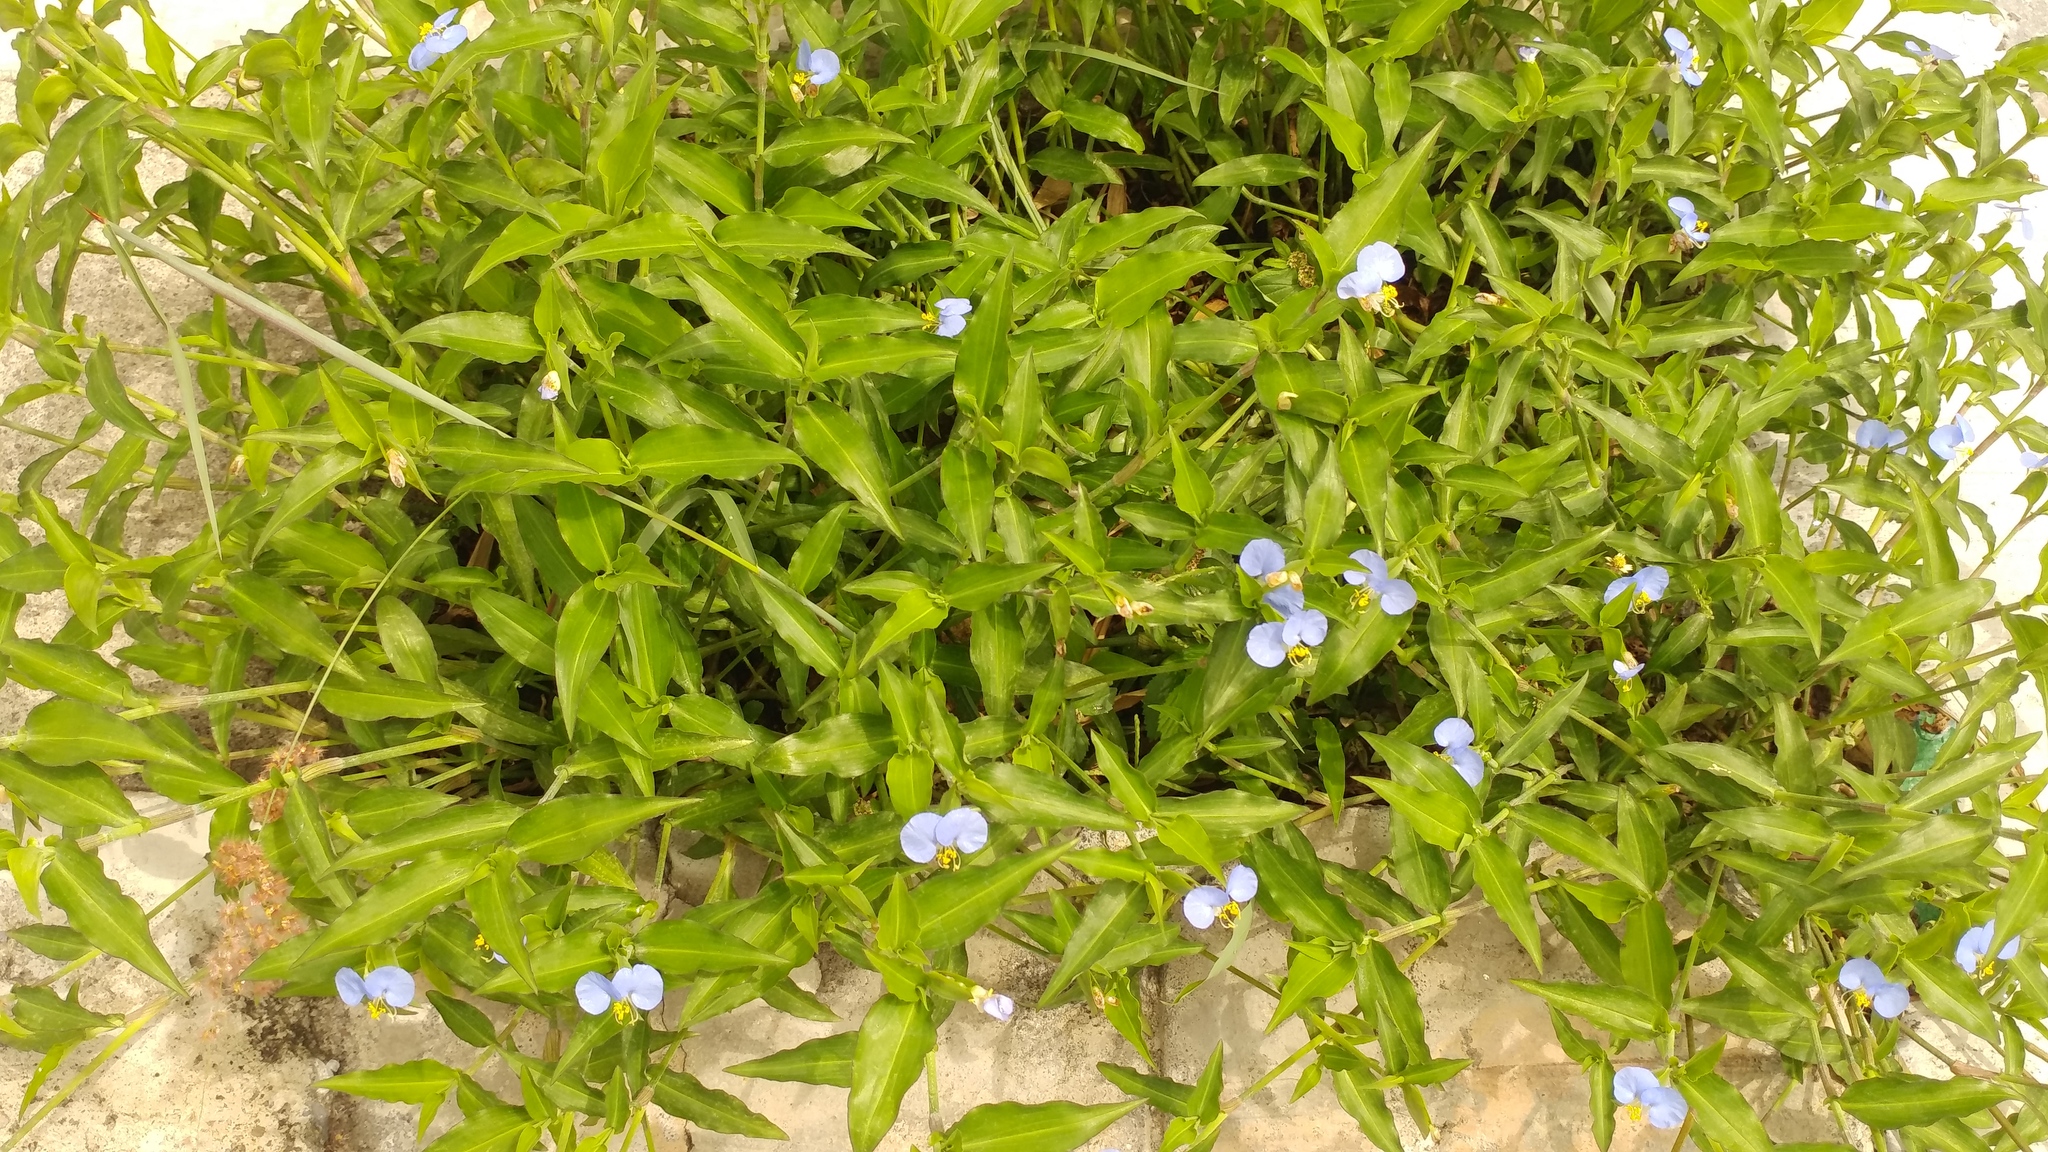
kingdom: Plantae
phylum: Tracheophyta
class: Liliopsida
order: Commelinales
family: Commelinaceae
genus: Commelina
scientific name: Commelina erecta
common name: Blousel blommetjie
